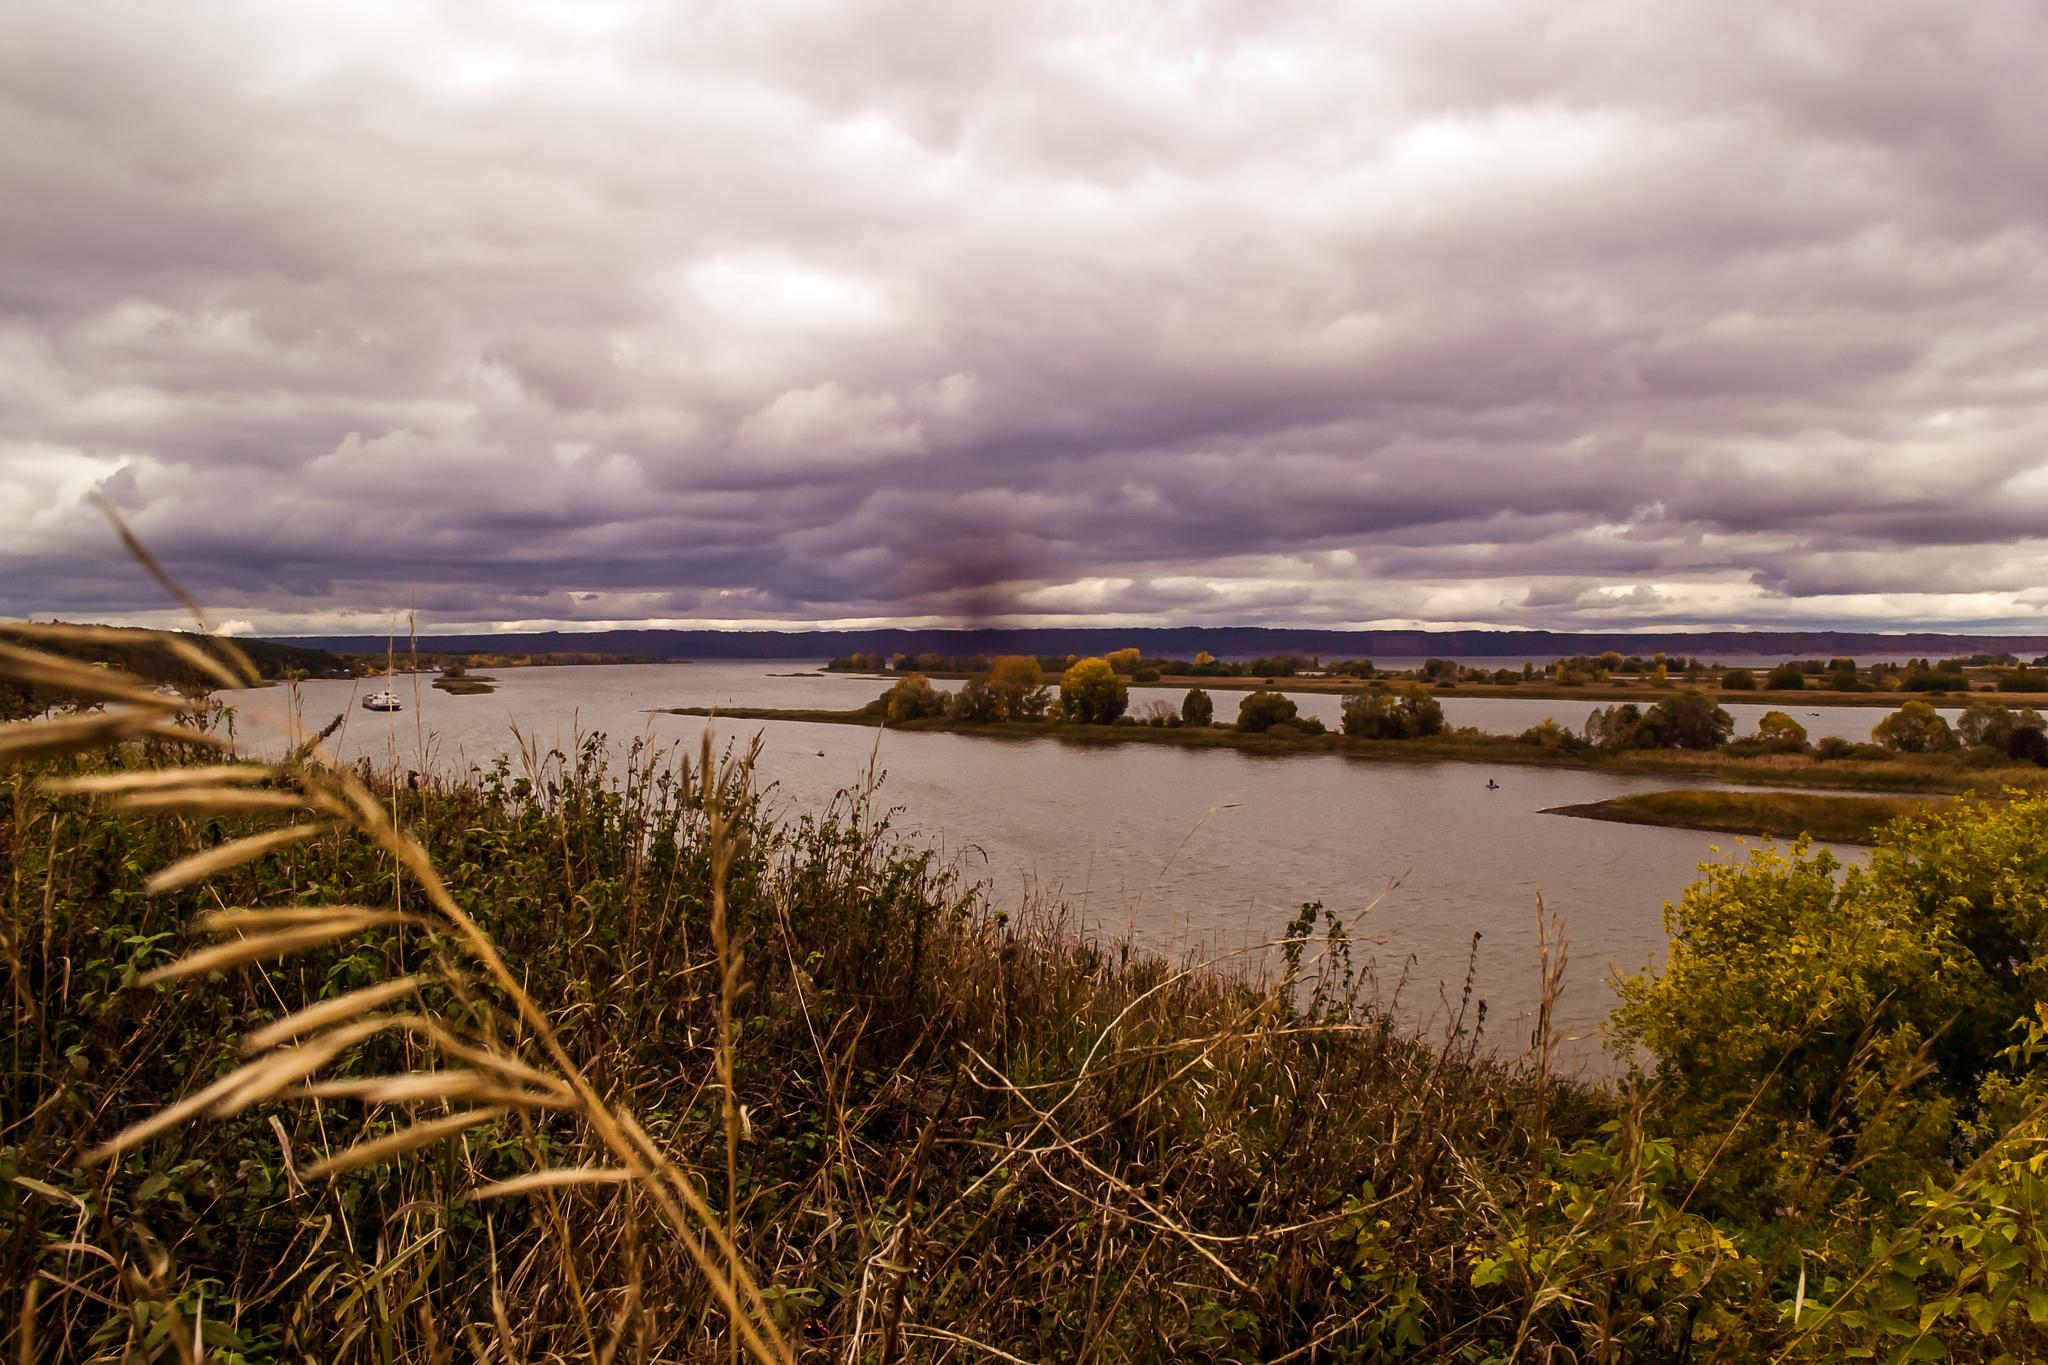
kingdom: Plantae
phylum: Tracheophyta
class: Liliopsida
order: Poales
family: Poaceae
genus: Bromus
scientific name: Bromus inermis
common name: Smooth brome
